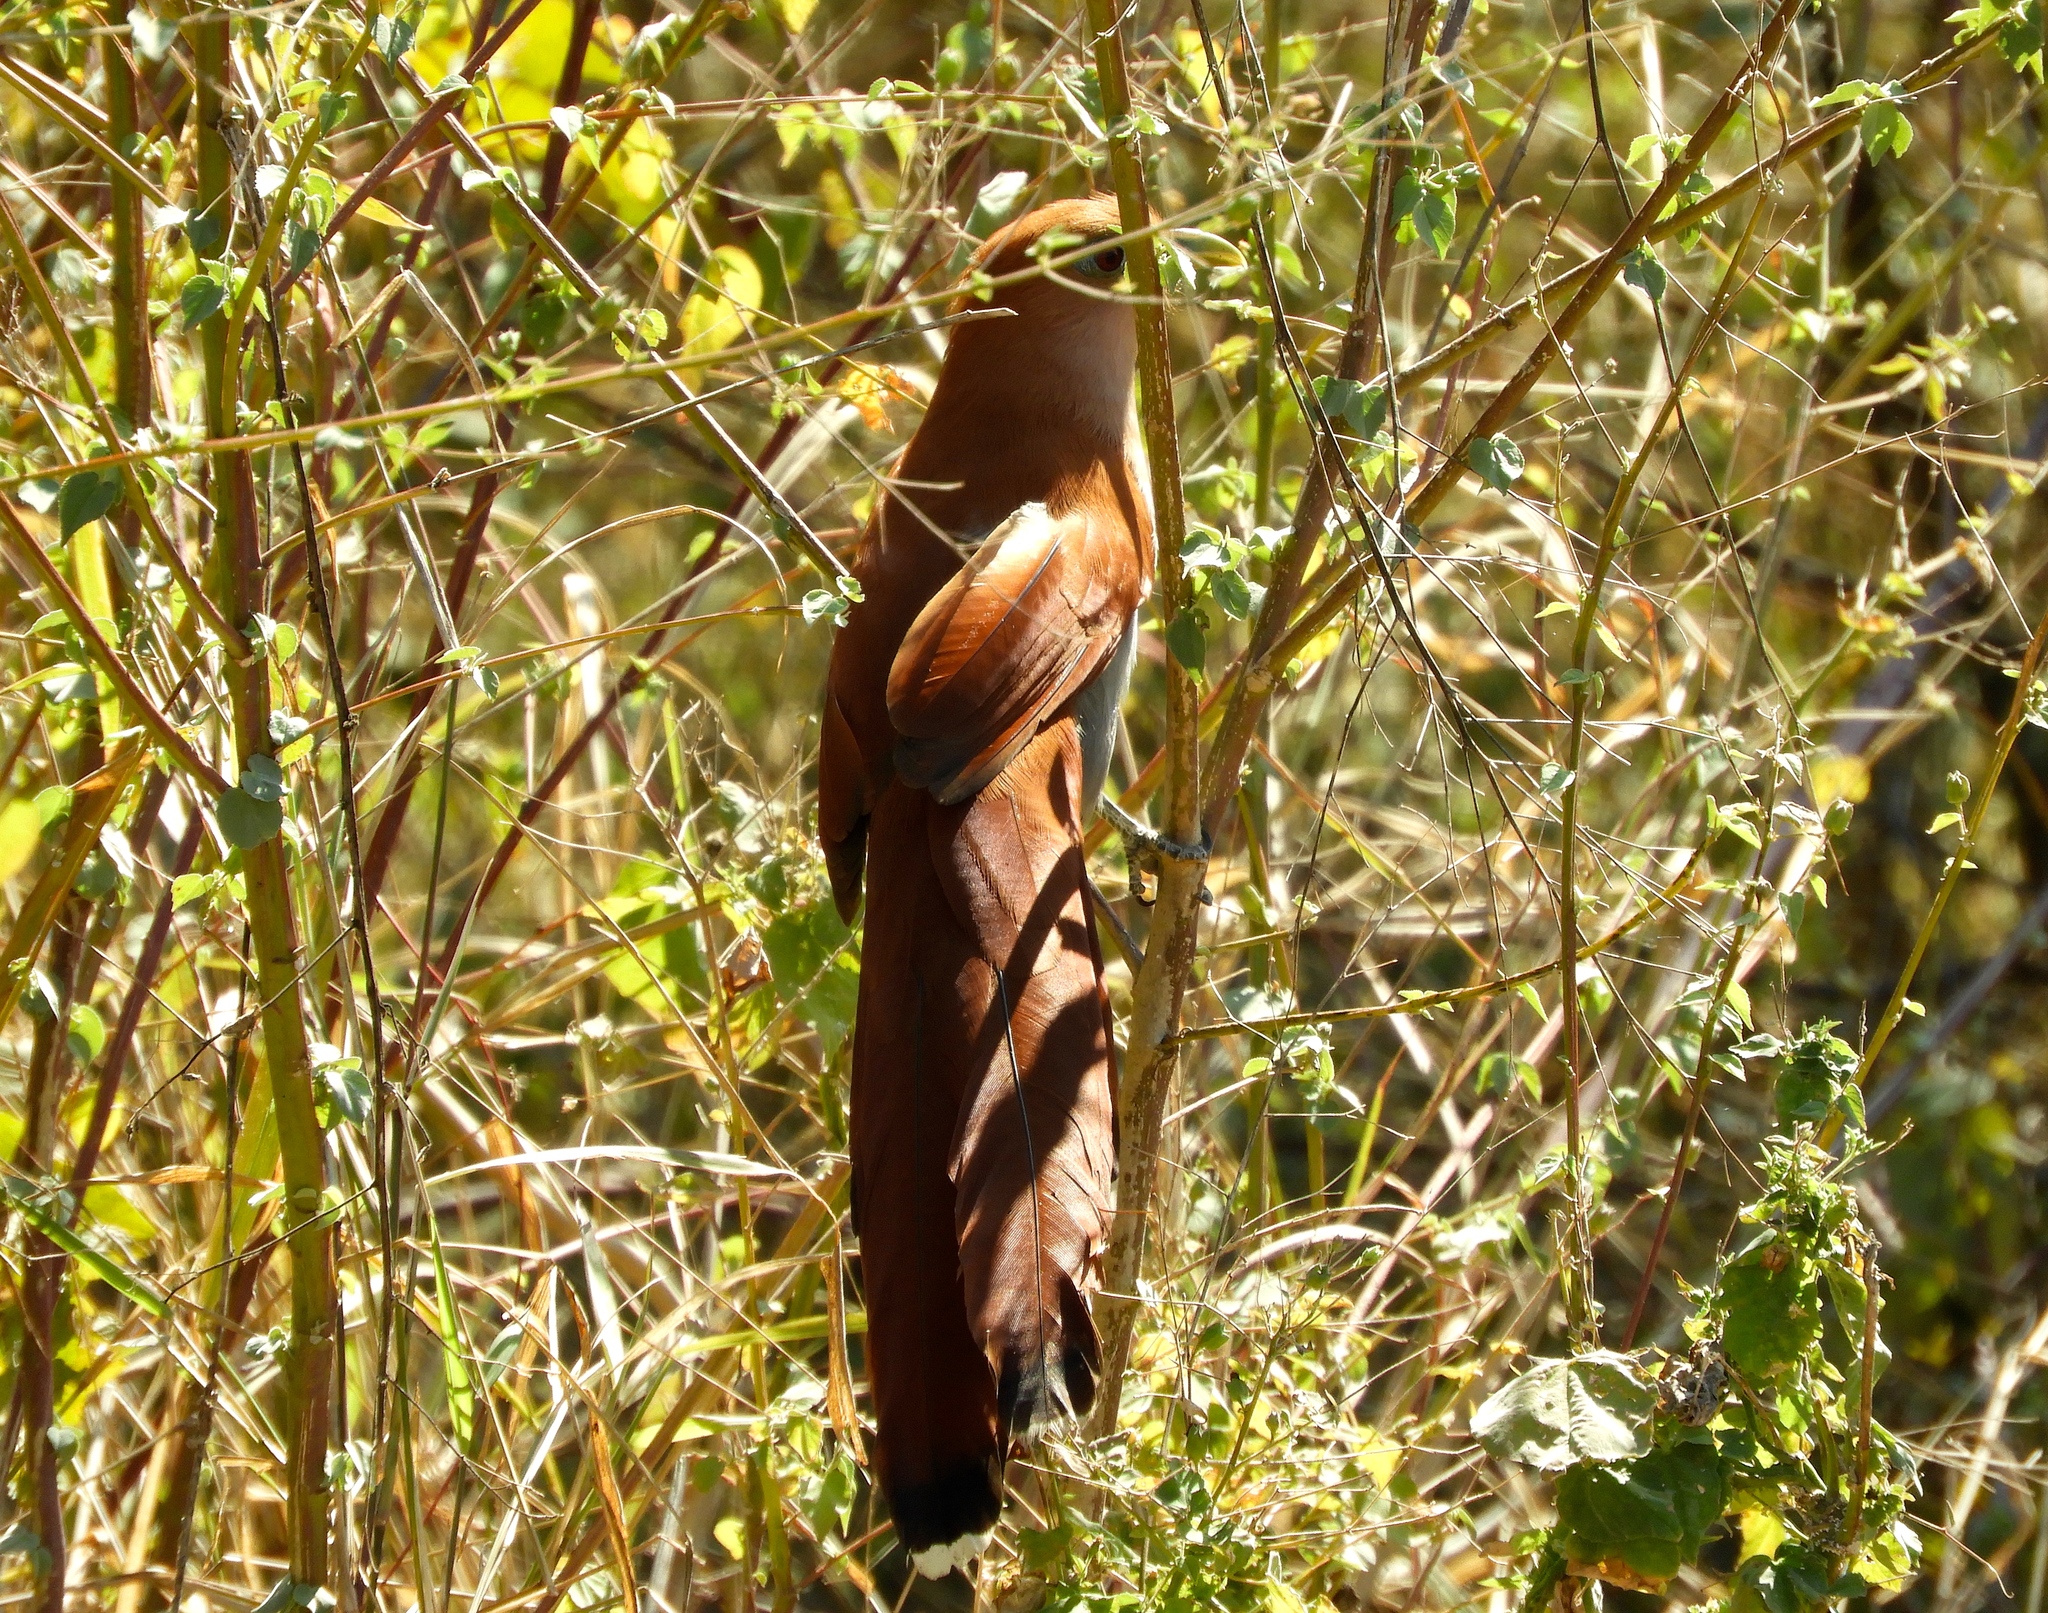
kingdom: Animalia
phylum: Chordata
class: Aves
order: Cuculiformes
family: Cuculidae
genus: Piaya
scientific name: Piaya cayana
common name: Squirrel cuckoo
